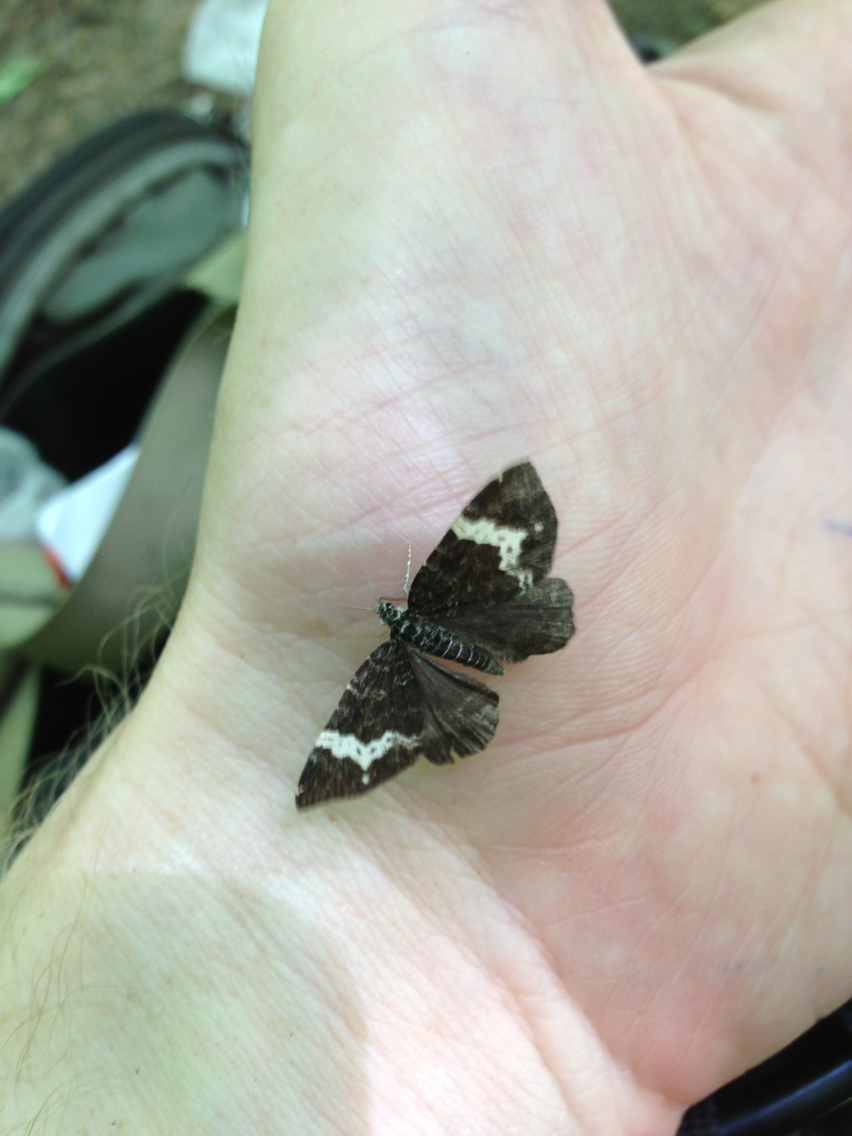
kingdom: Animalia
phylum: Arthropoda
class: Insecta
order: Lepidoptera
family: Geometridae
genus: Rheumaptera
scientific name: Rheumaptera
